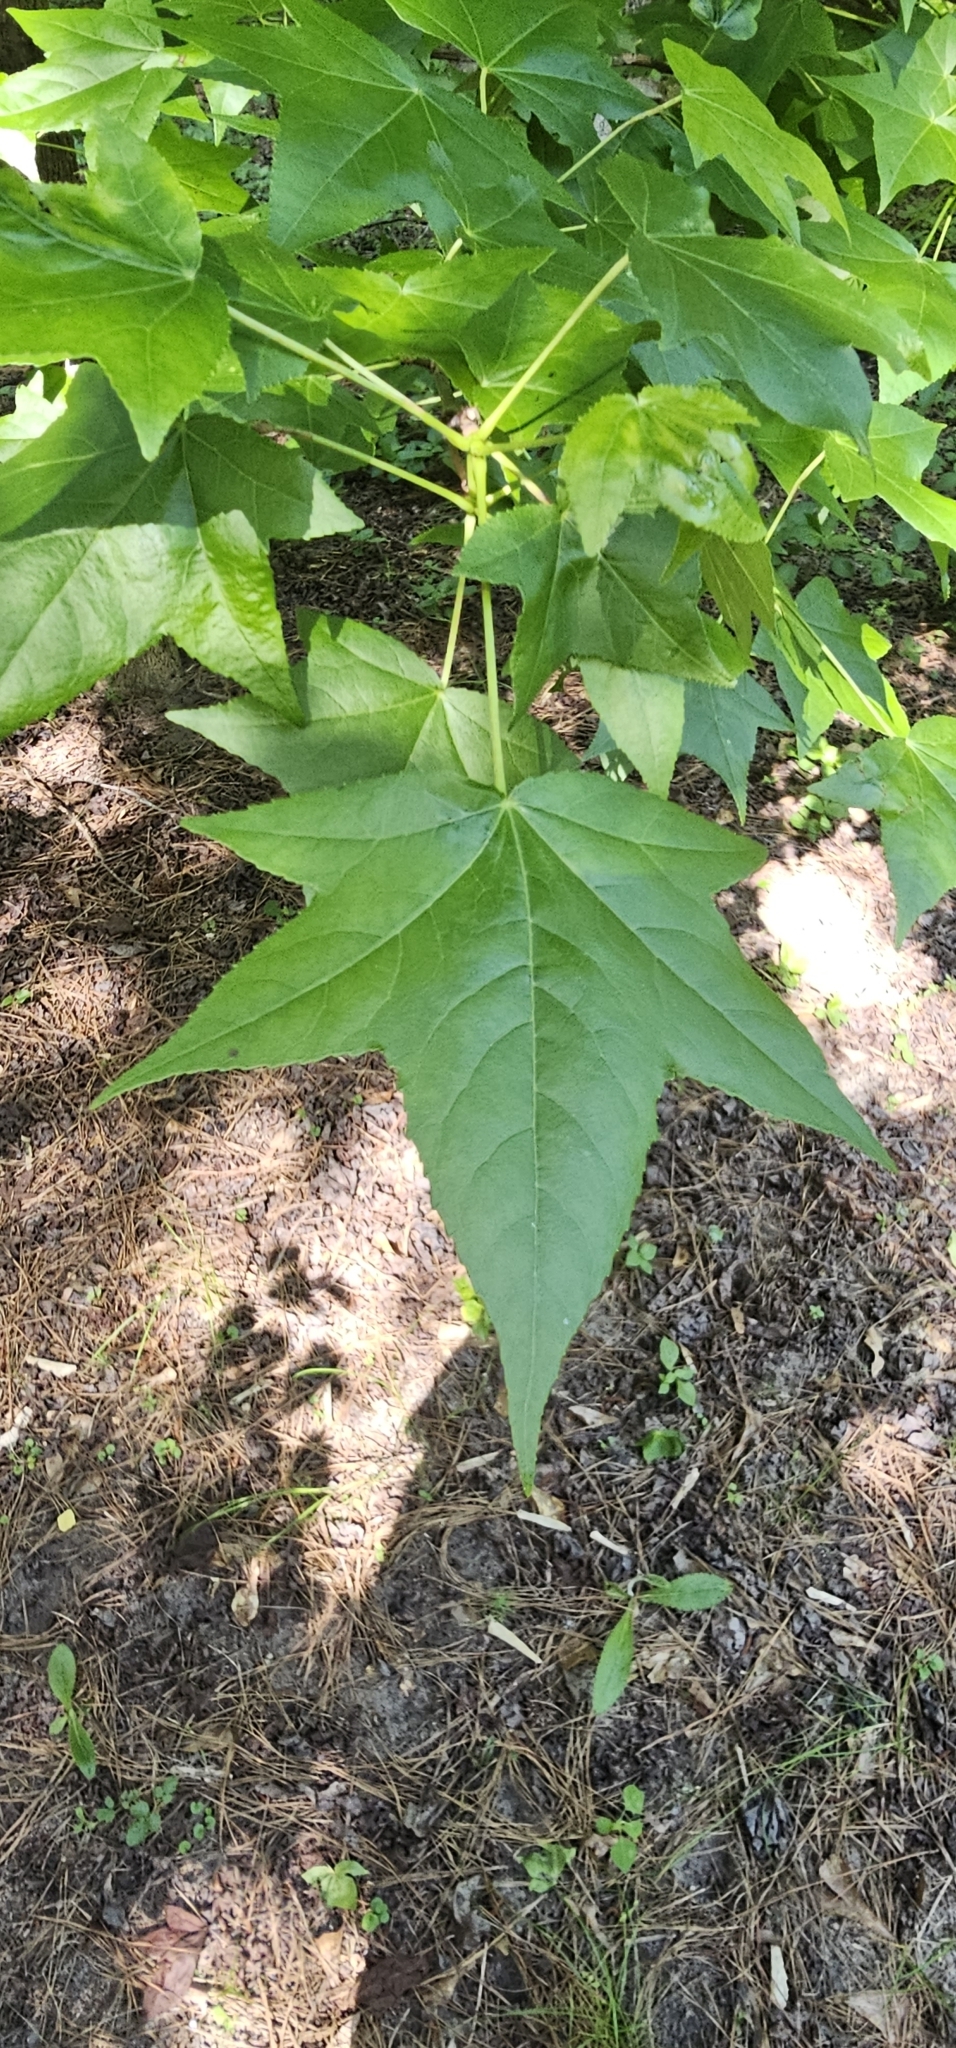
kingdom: Plantae
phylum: Tracheophyta
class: Magnoliopsida
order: Saxifragales
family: Altingiaceae
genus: Liquidambar
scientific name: Liquidambar styraciflua
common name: Sweet gum
